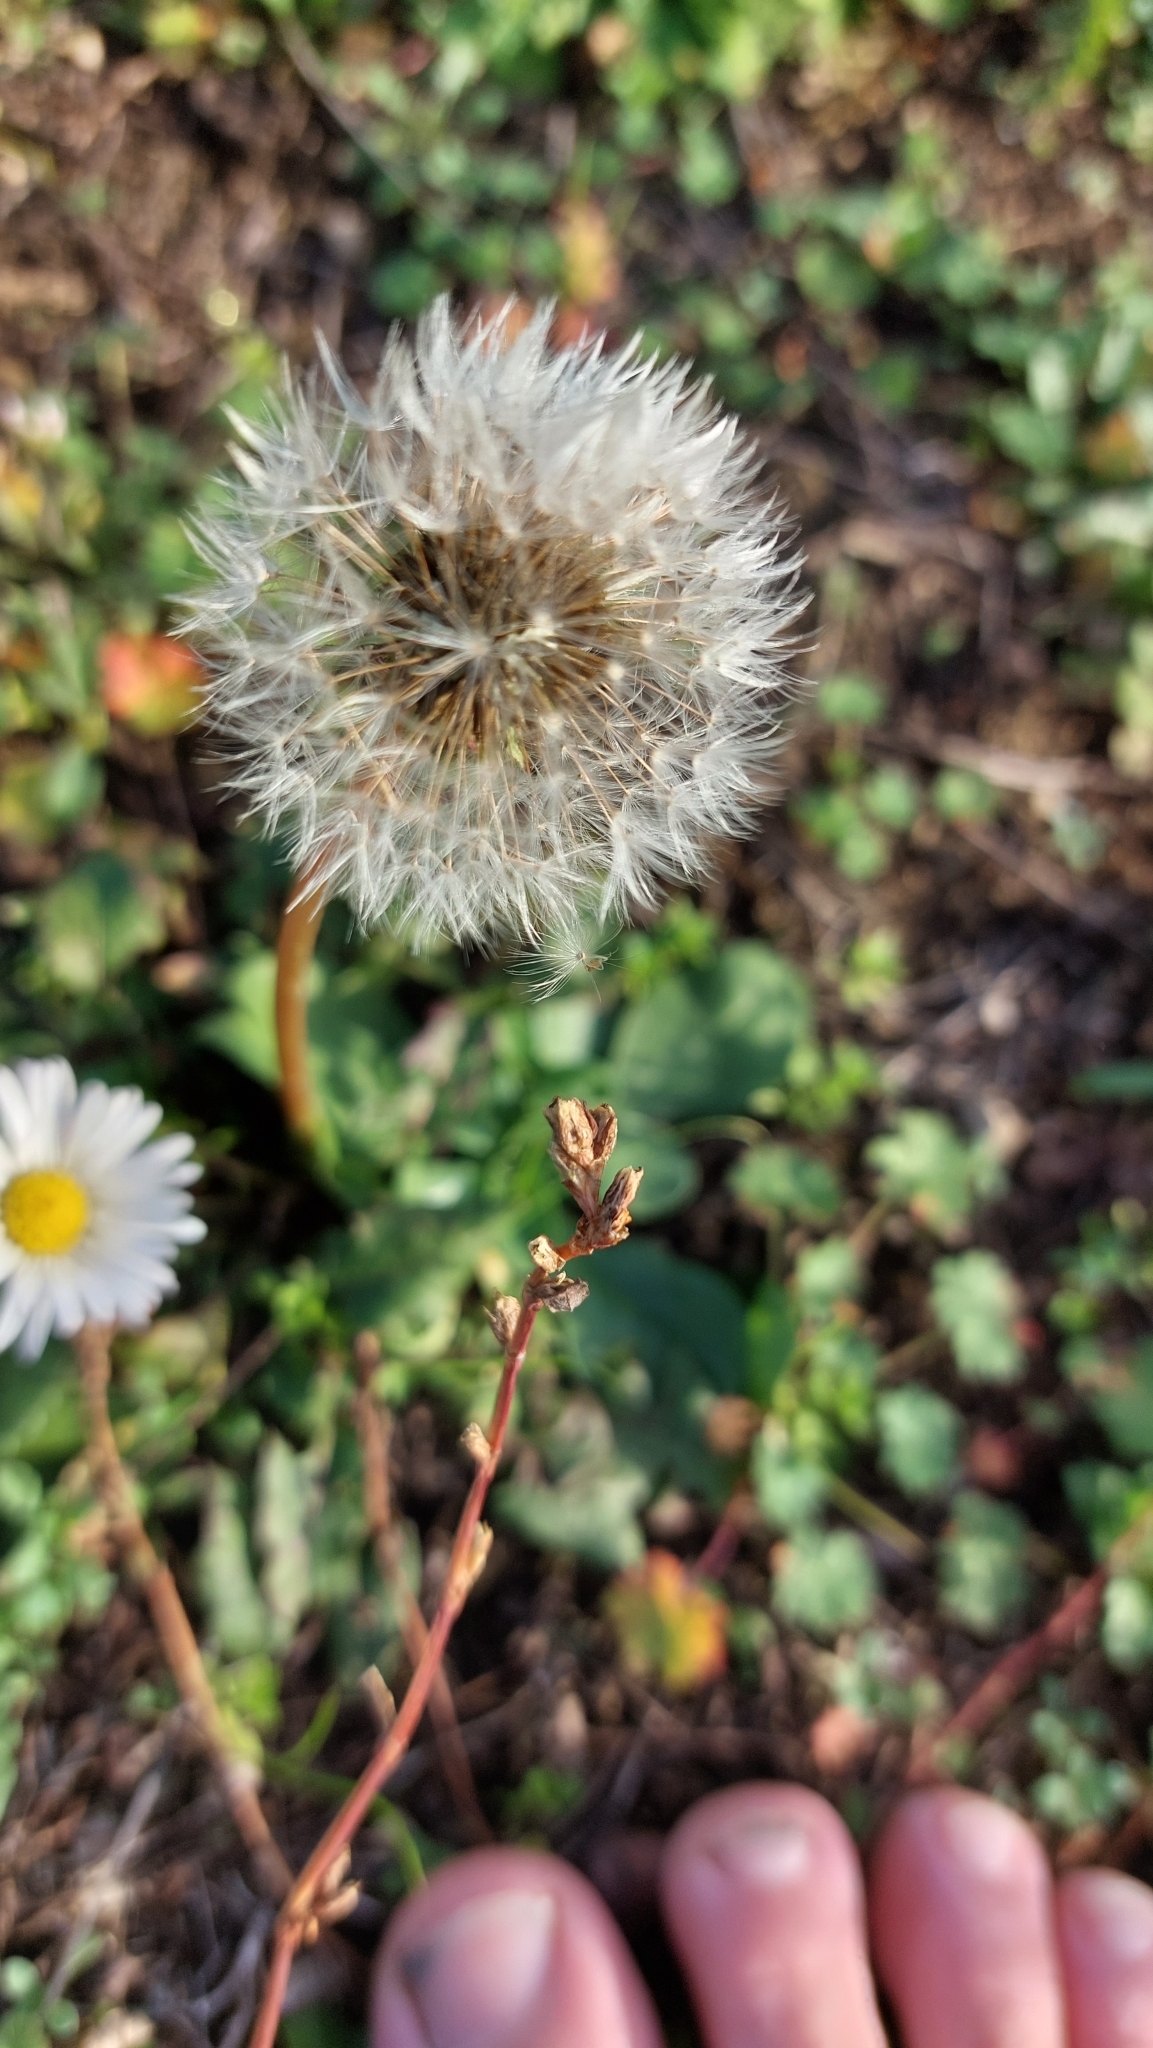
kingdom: Plantae
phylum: Tracheophyta
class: Magnoliopsida
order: Asterales
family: Asteraceae
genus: Taraxacum
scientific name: Taraxacum
